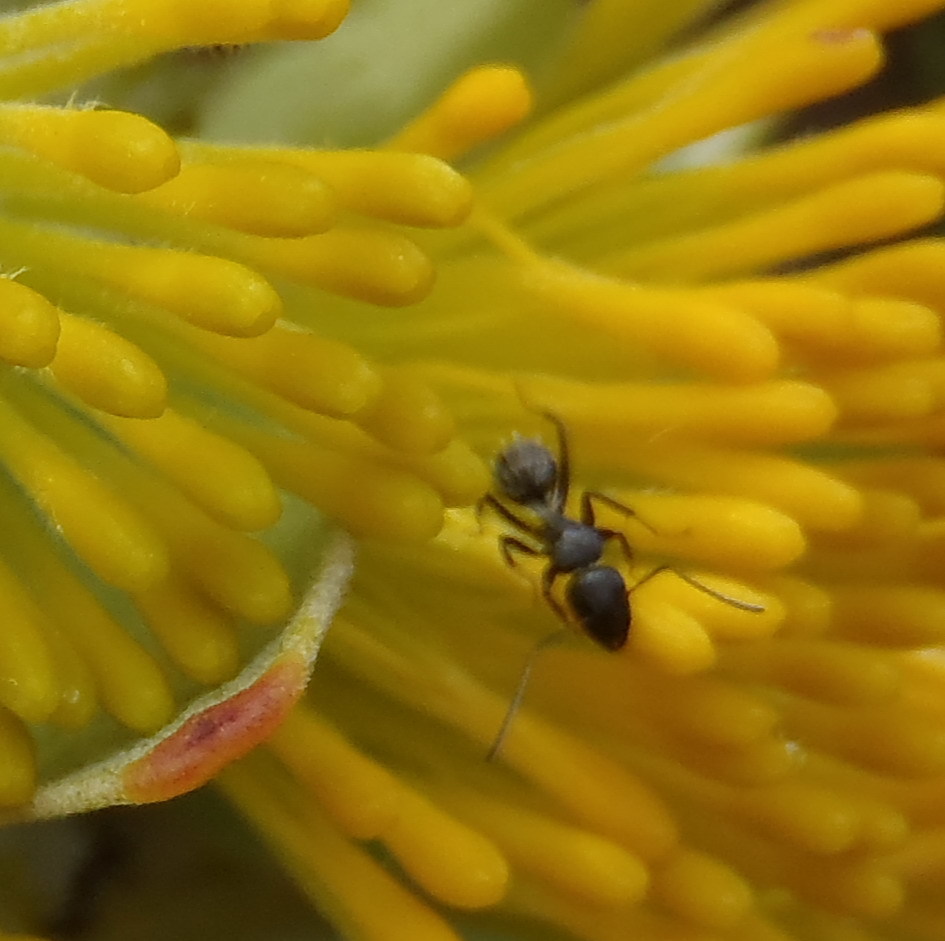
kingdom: Animalia
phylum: Arthropoda
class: Insecta
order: Hymenoptera
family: Formicidae
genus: Camponotus
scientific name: Camponotus niveosetosus
